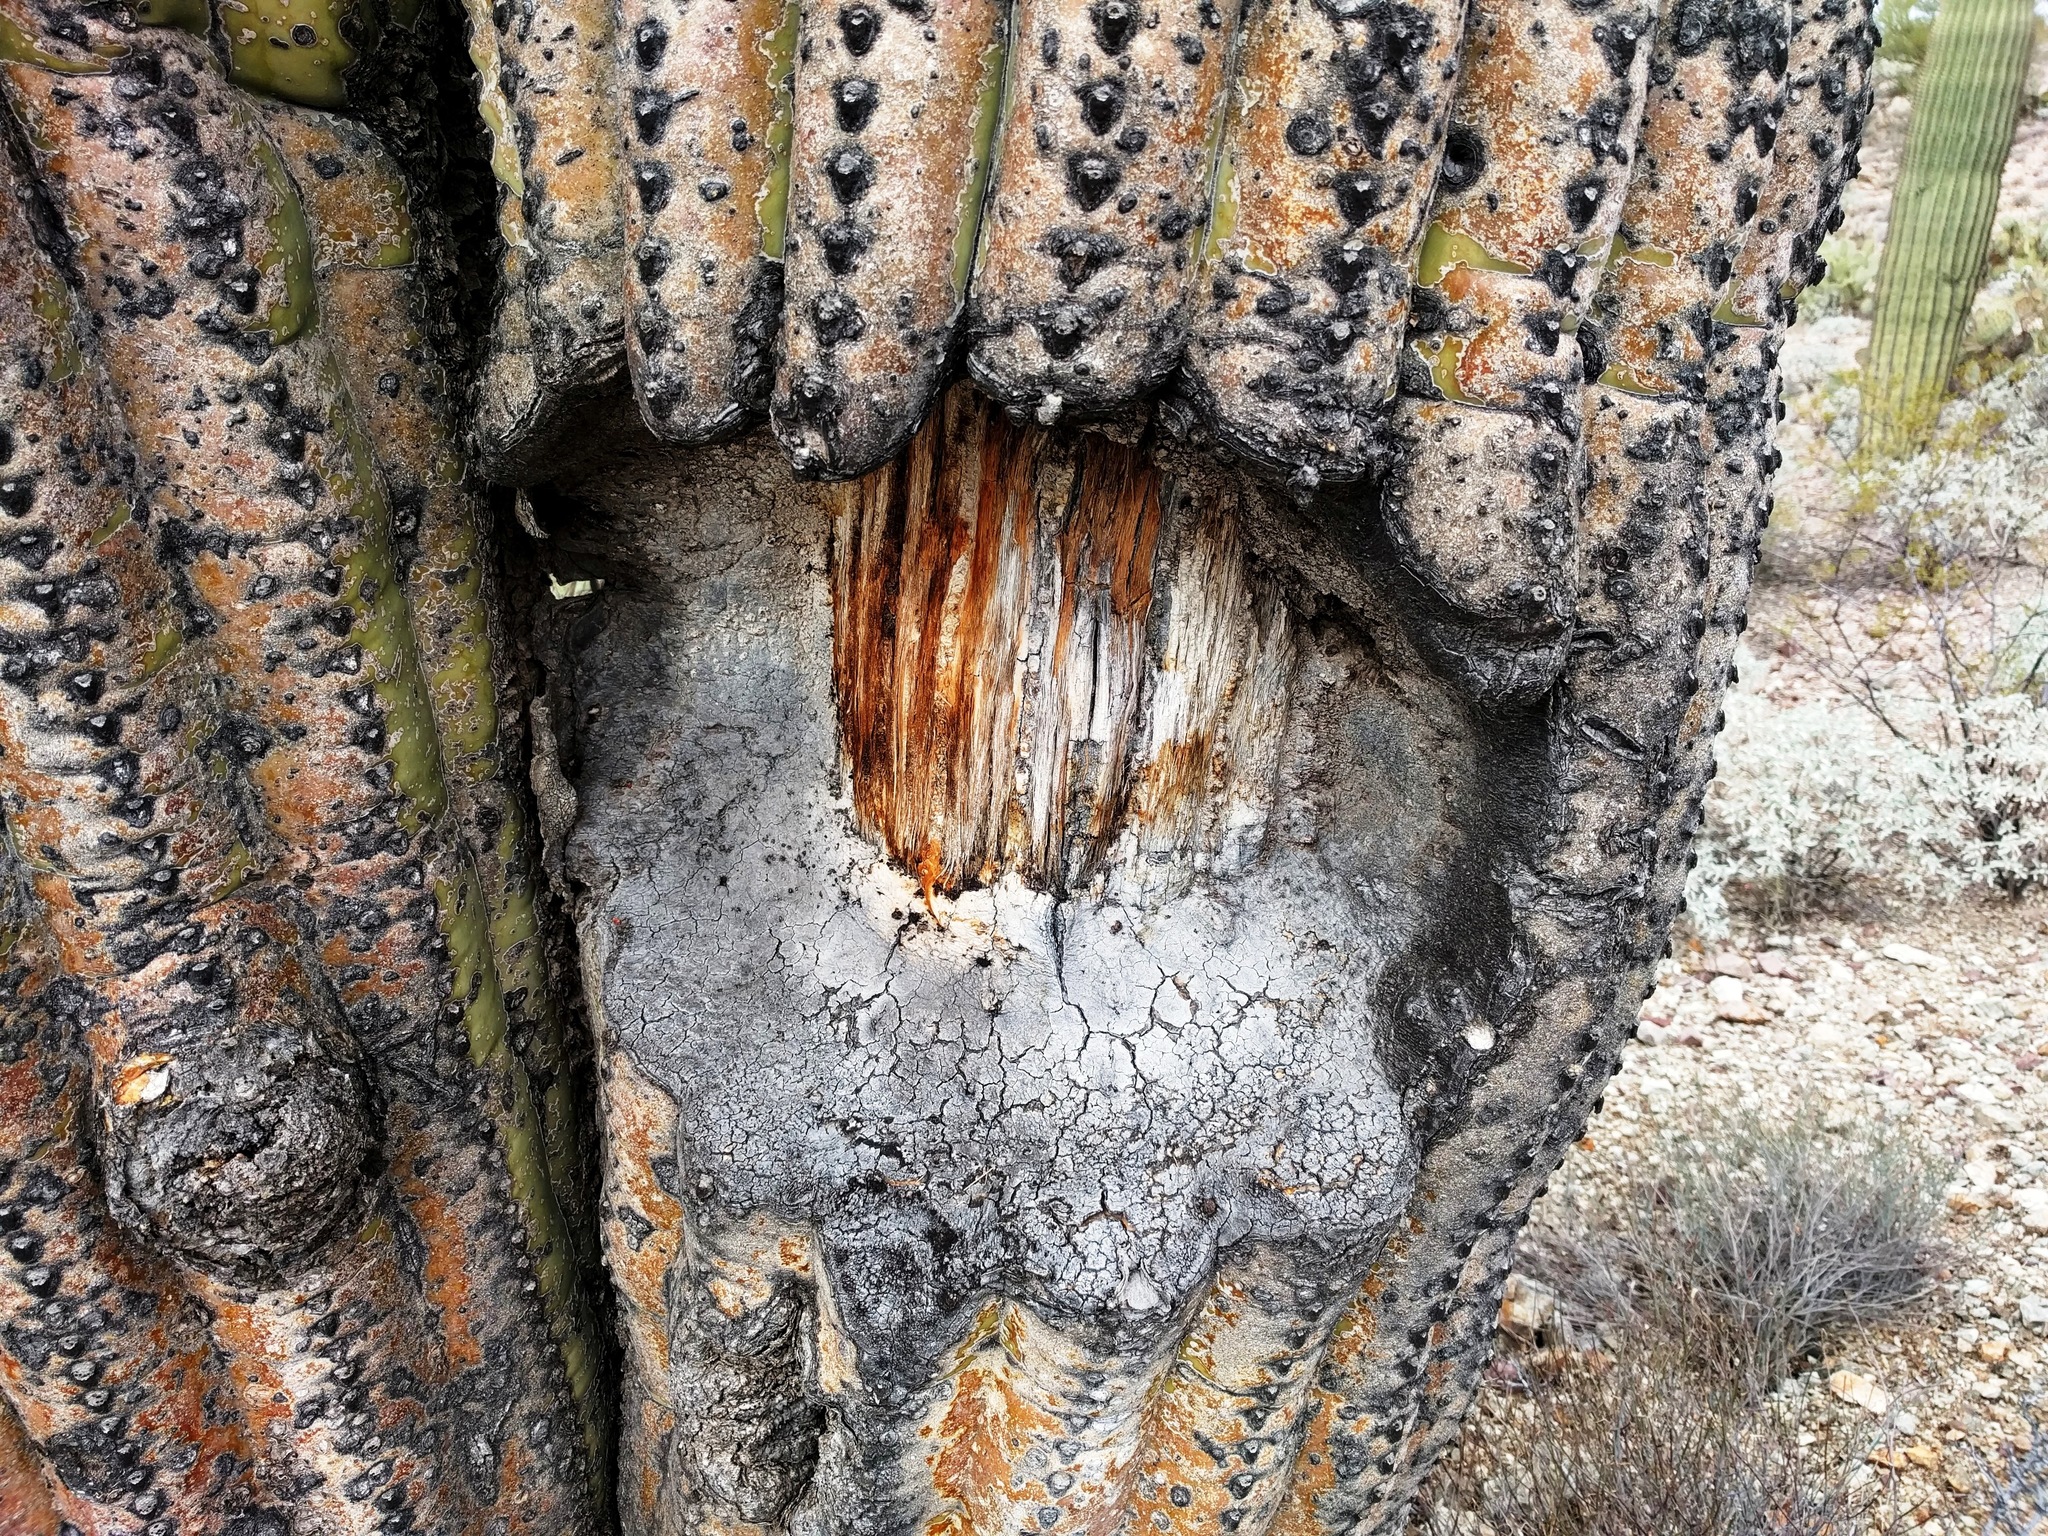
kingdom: Plantae
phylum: Tracheophyta
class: Magnoliopsida
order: Caryophyllales
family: Cactaceae
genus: Carnegiea
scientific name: Carnegiea gigantea
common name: Saguaro
